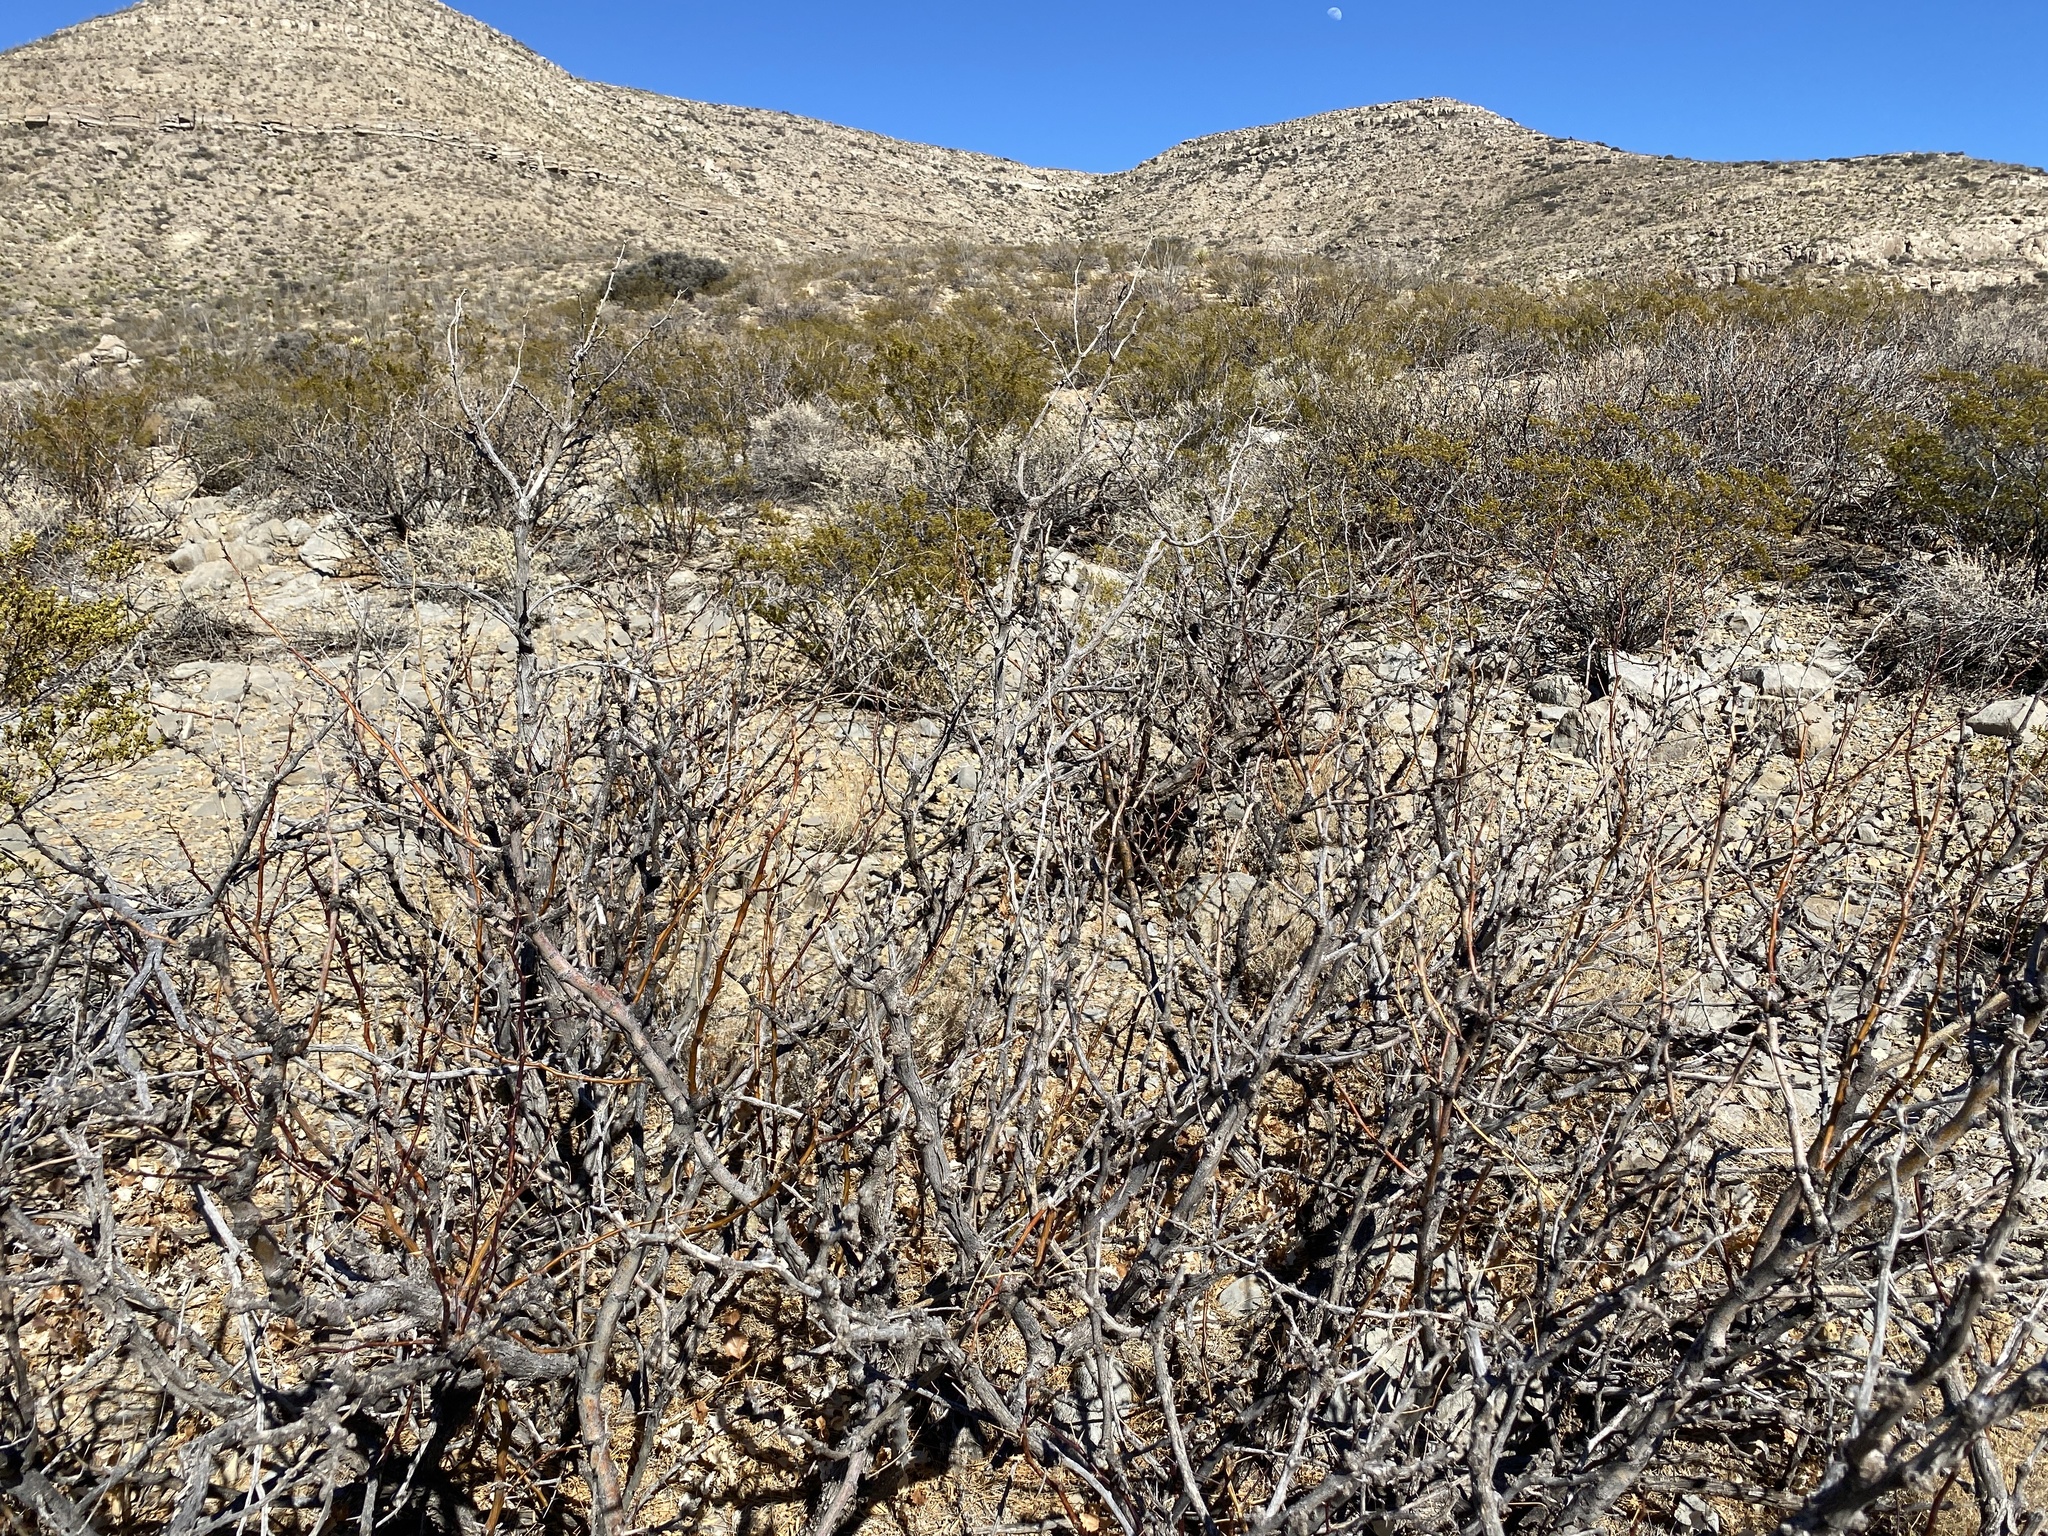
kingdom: Plantae
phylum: Tracheophyta
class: Magnoliopsida
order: Fabales
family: Fabaceae
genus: Prosopis
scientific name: Prosopis glandulosa
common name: Honey mesquite
